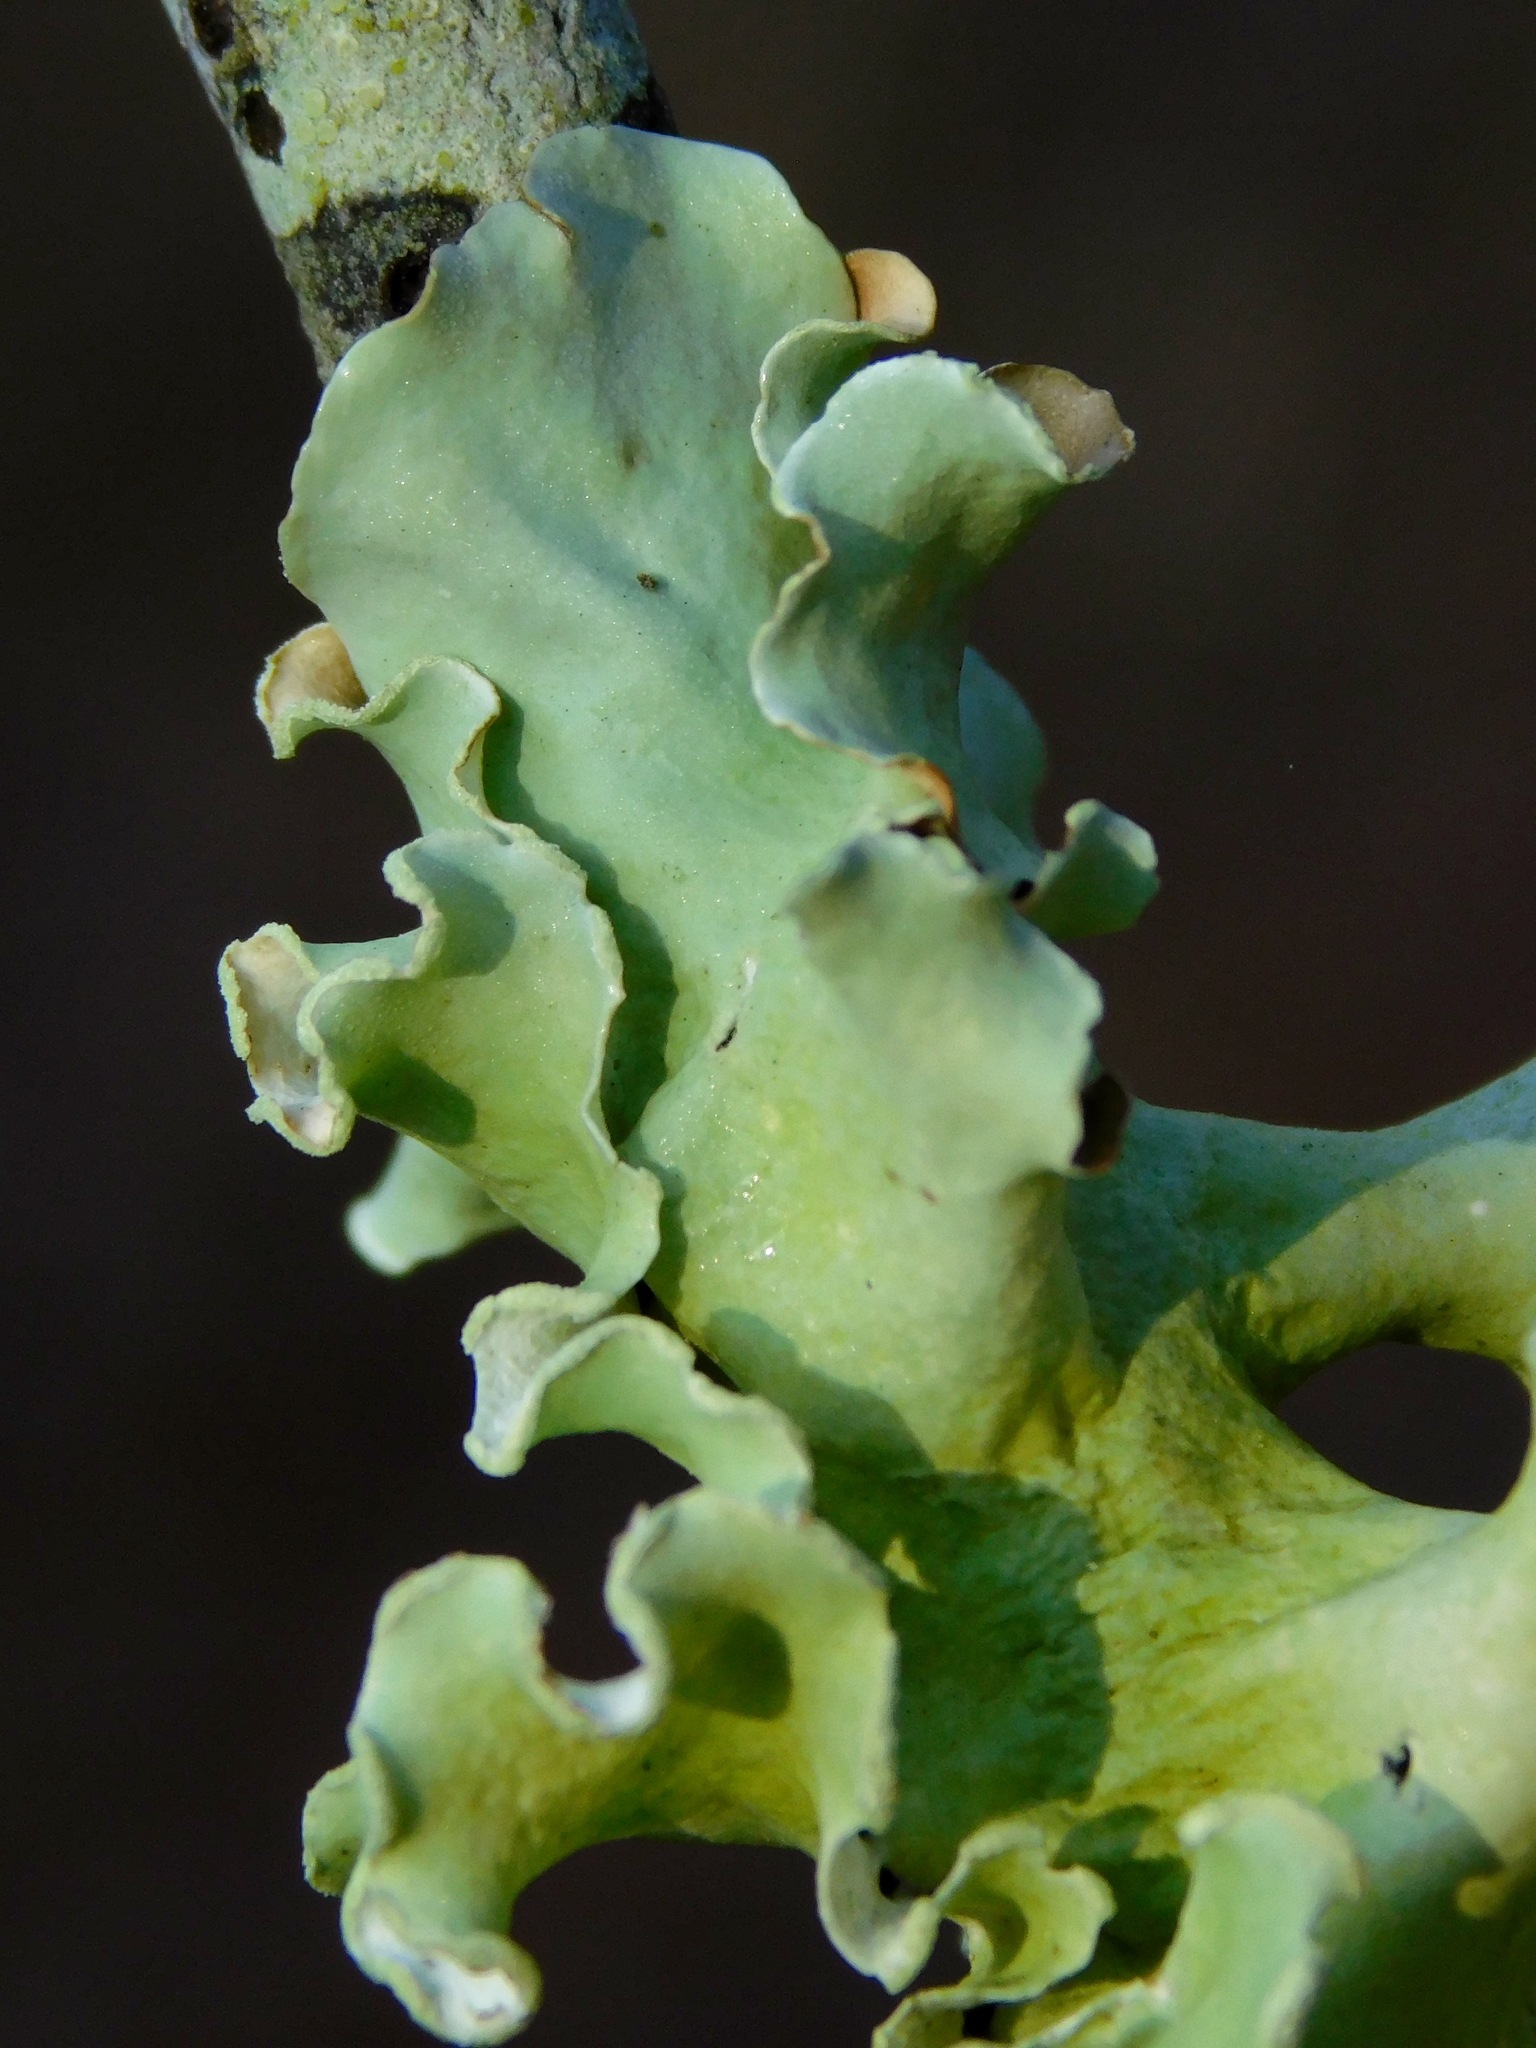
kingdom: Fungi
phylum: Ascomycota
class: Lecanoromycetes
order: Lecanorales
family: Parmeliaceae
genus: Parmotrema
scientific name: Parmotrema austrosinense
